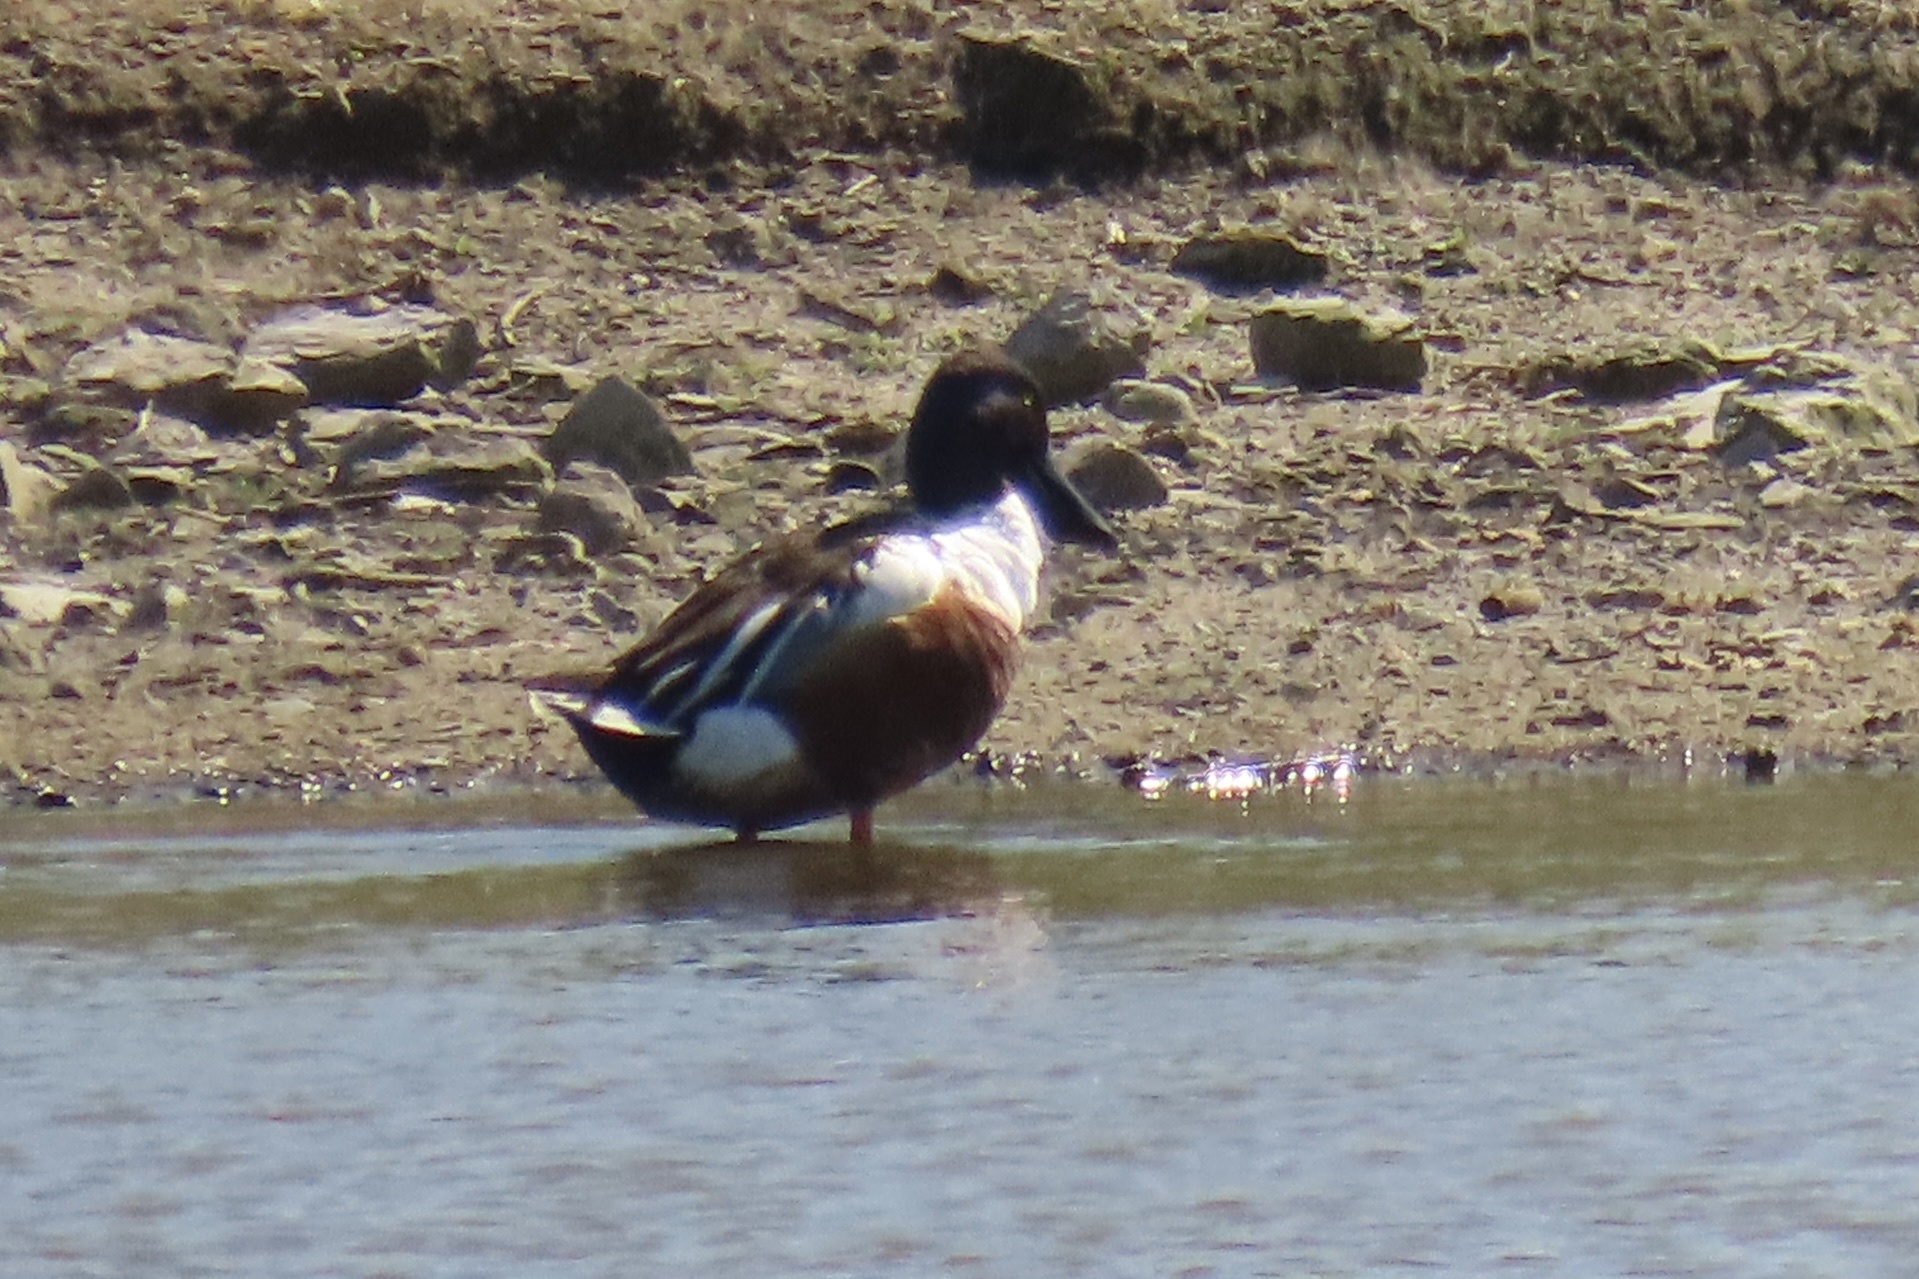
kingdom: Animalia
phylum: Chordata
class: Aves
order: Anseriformes
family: Anatidae
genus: Spatula
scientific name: Spatula clypeata
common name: Northern shoveler
